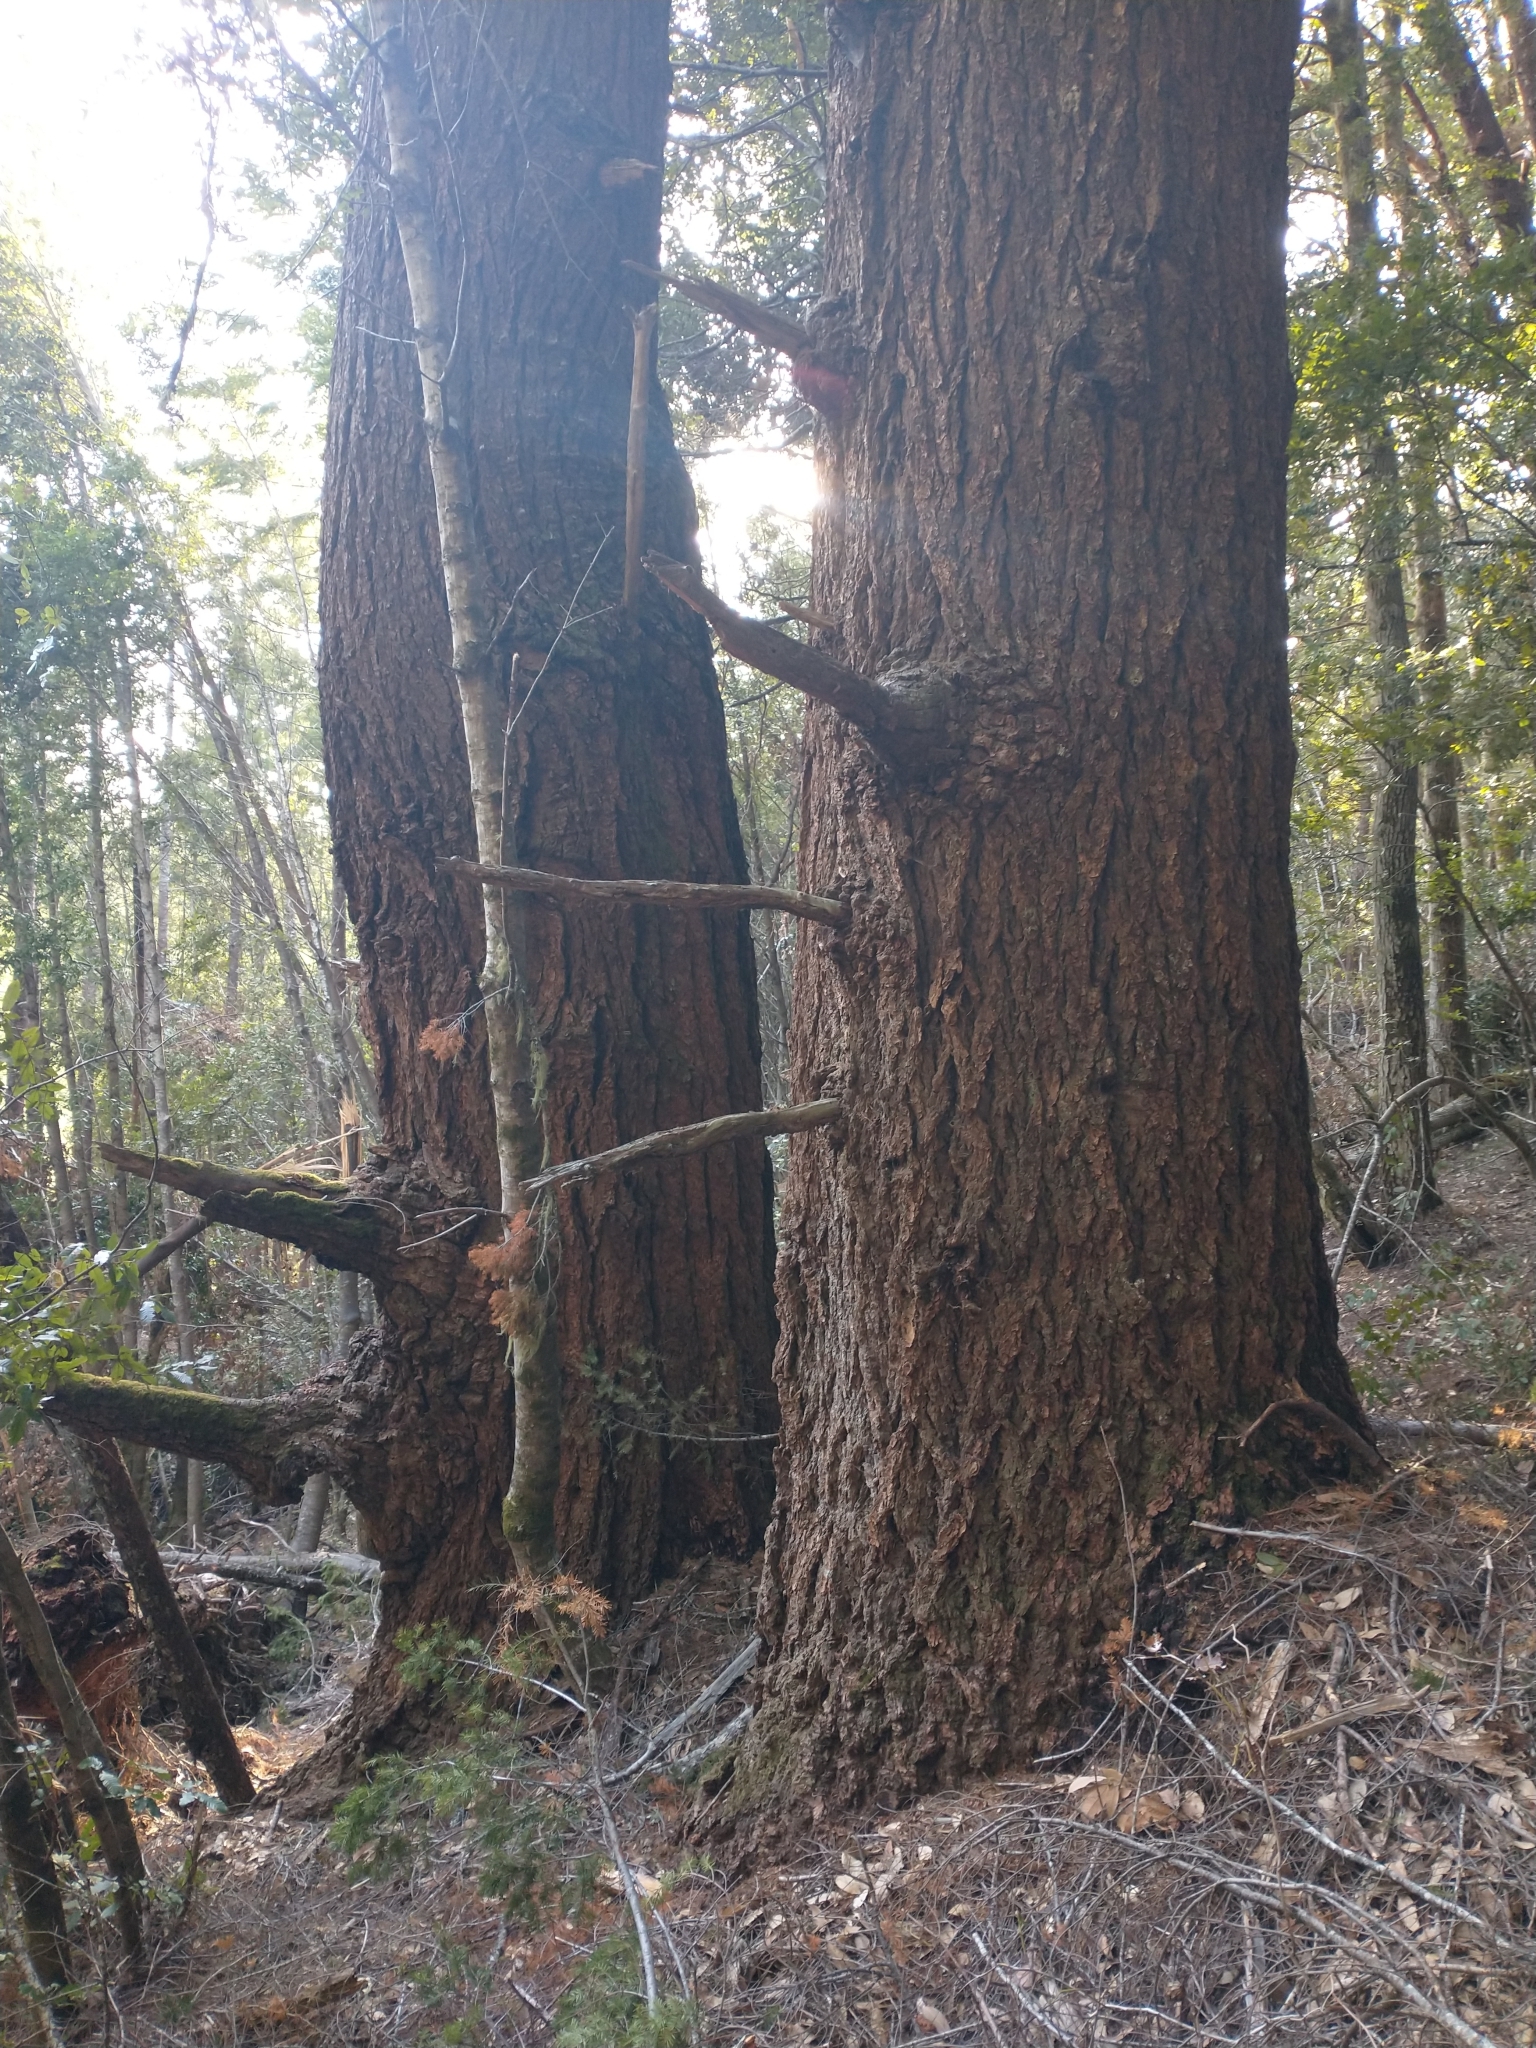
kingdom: Plantae
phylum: Tracheophyta
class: Pinopsida
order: Pinales
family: Pinaceae
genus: Pseudotsuga
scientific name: Pseudotsuga menziesii
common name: Douglas fir
